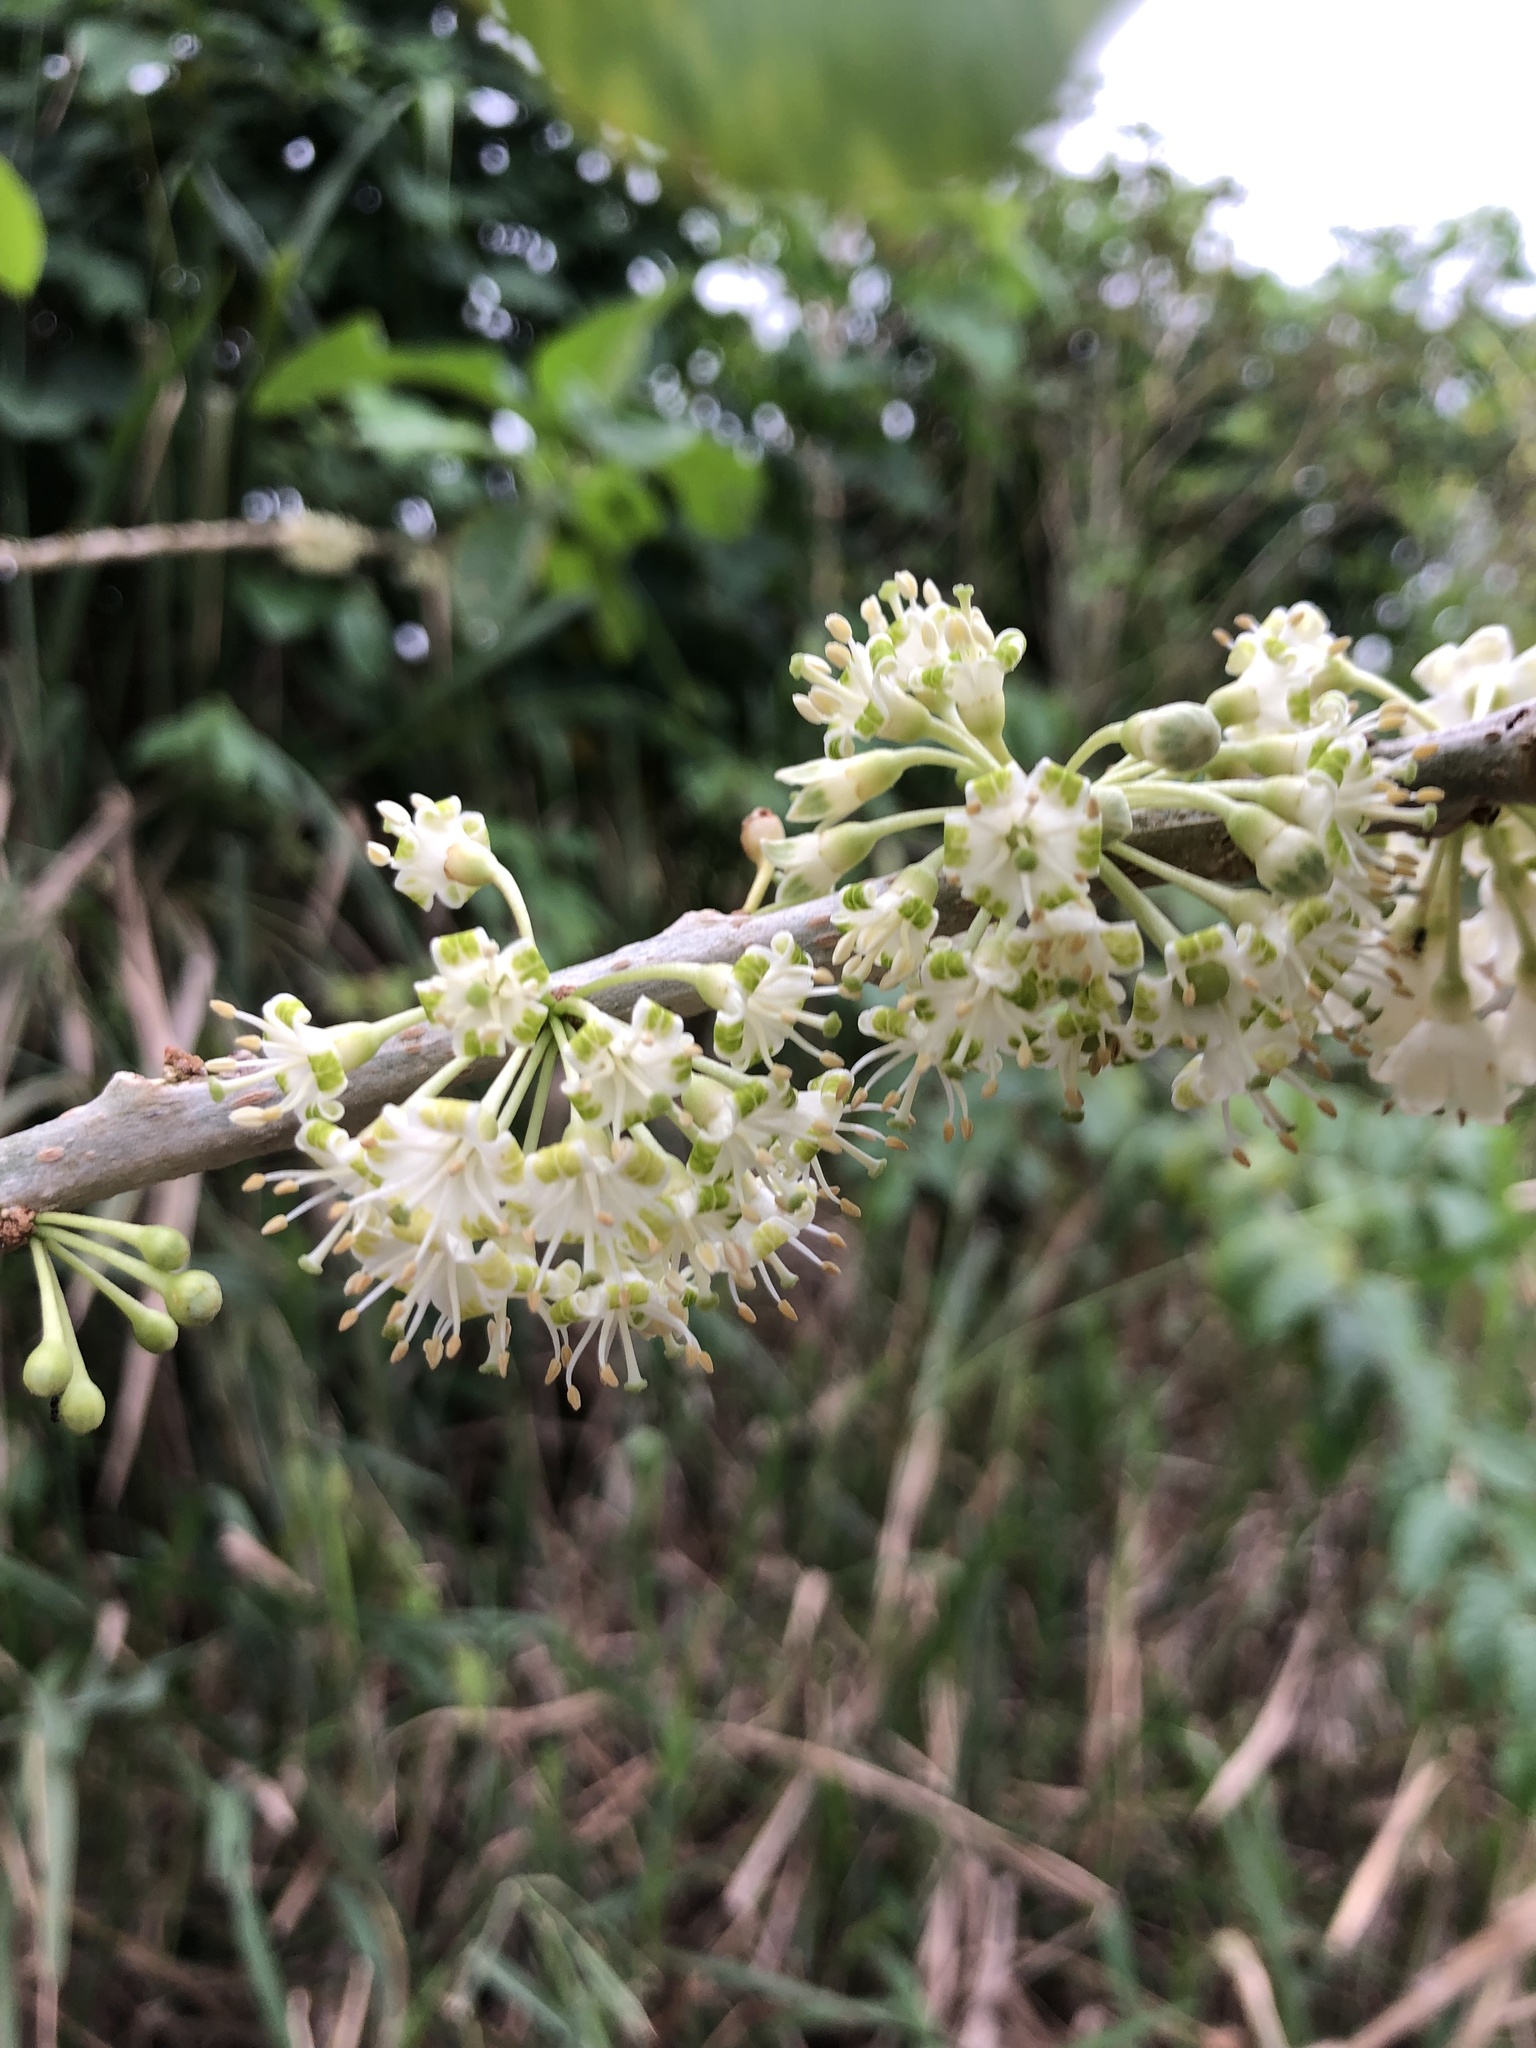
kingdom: Plantae
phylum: Tracheophyta
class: Magnoliopsida
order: Solanales
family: Solanaceae
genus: Iochroma
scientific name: Iochroma arborescens
